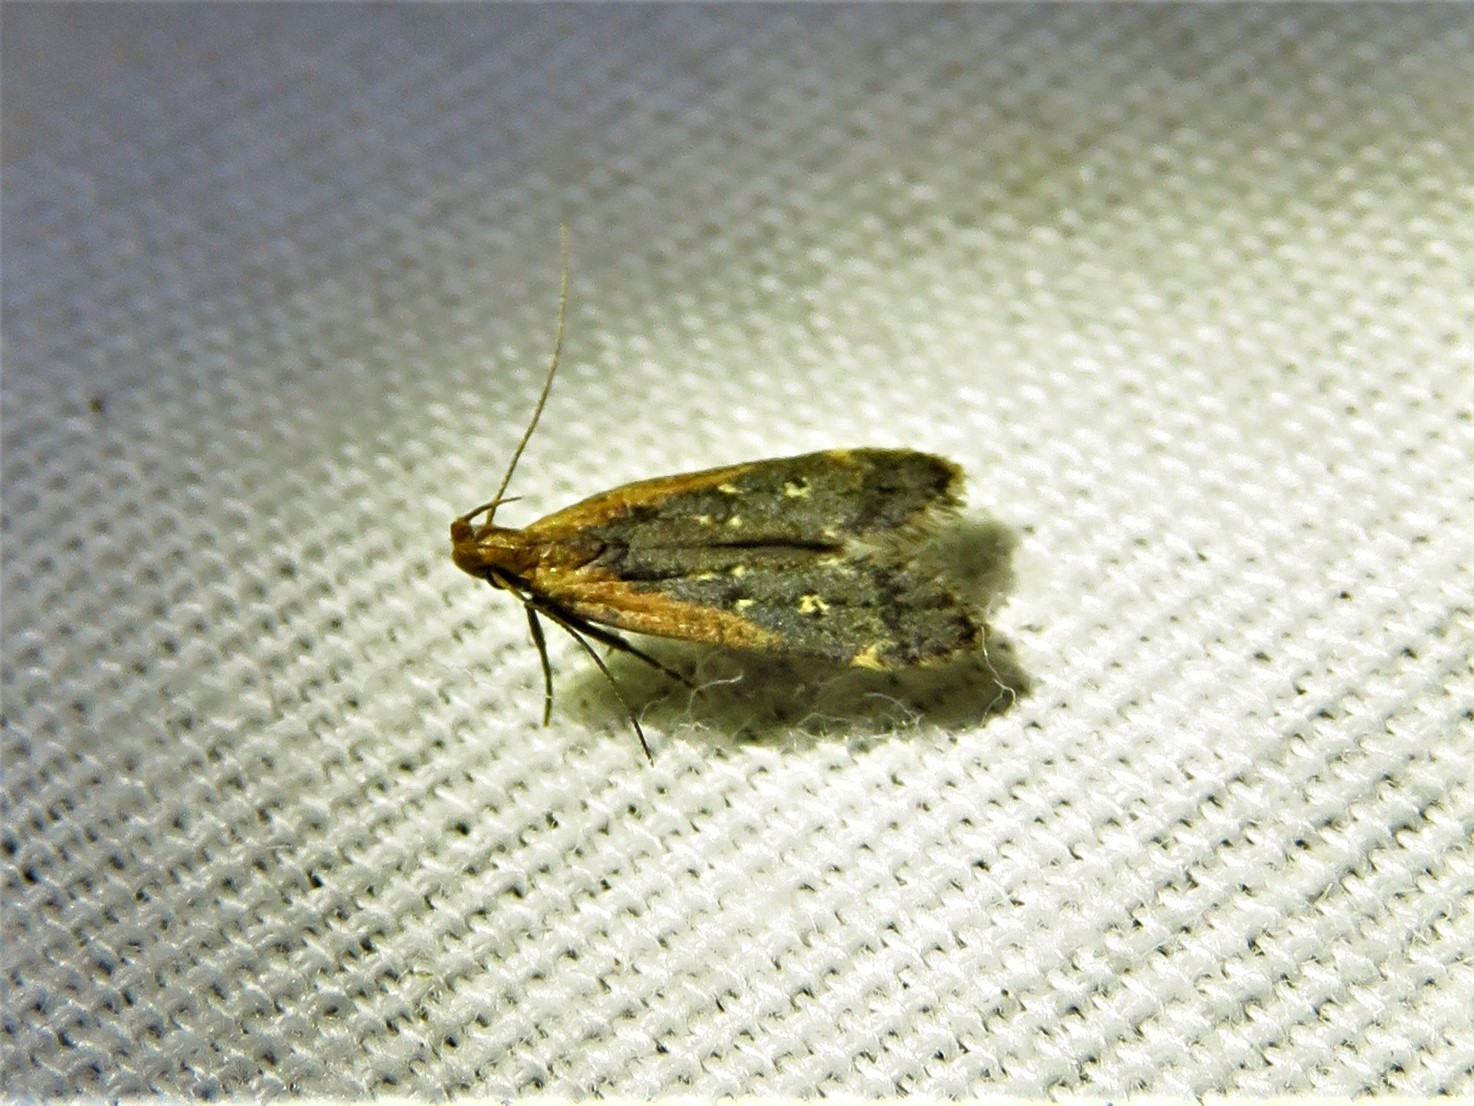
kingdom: Animalia
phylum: Arthropoda
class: Insecta
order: Lepidoptera
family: Gelechiidae
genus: Dichomeris
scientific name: Dichomeris costarufoella
